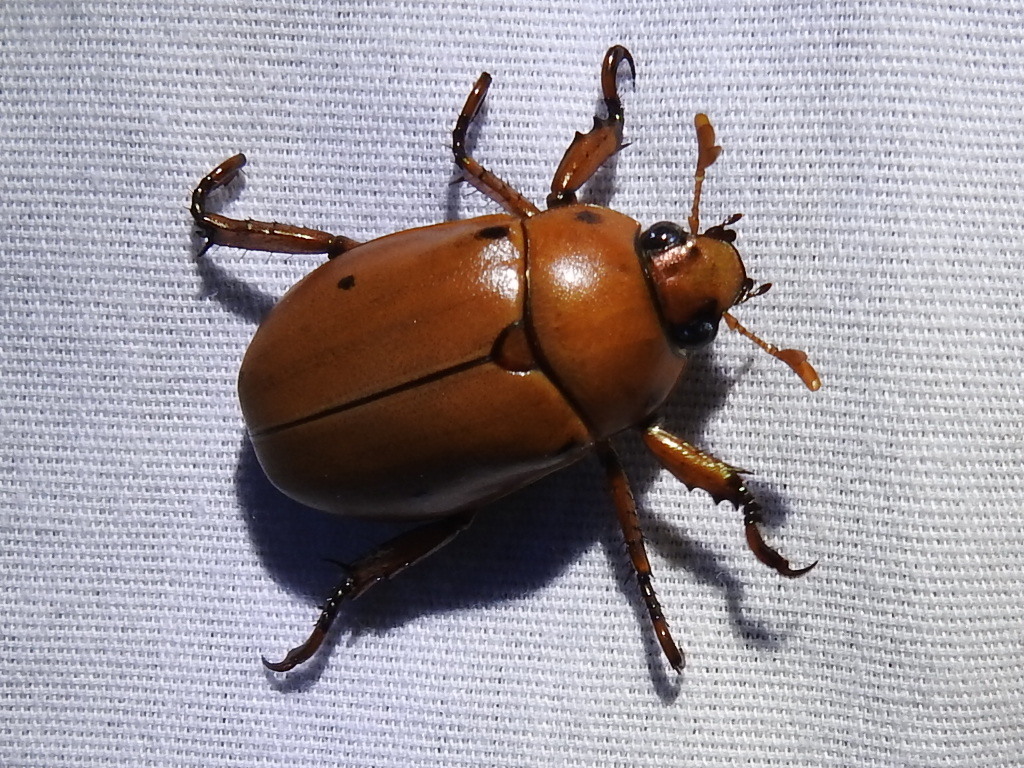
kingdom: Animalia
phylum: Arthropoda
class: Insecta
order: Coleoptera
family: Scarabaeidae
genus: Pelidnota
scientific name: Pelidnota punctata
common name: Grapevine beetle
